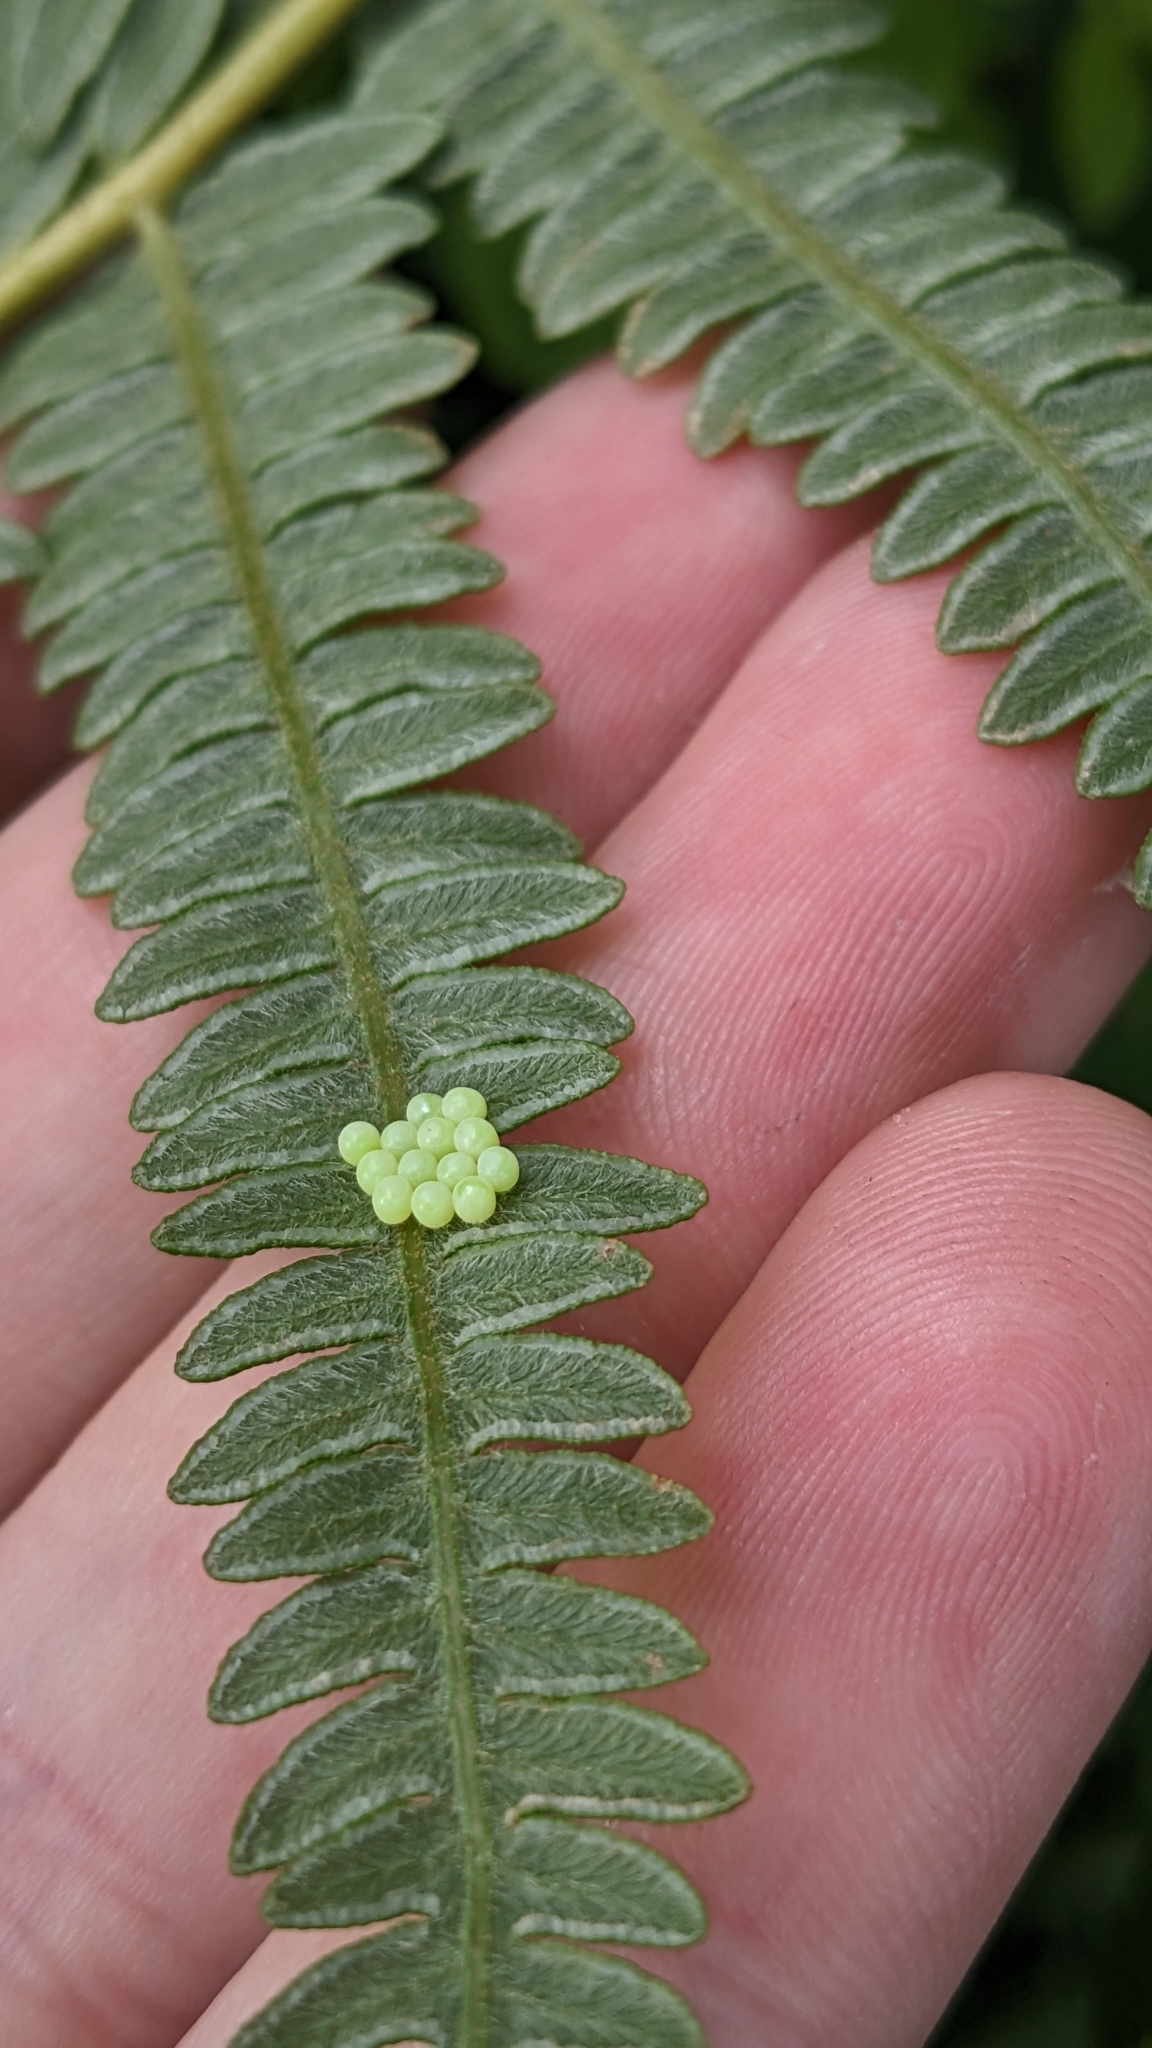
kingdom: Animalia
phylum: Arthropoda
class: Insecta
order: Hemiptera
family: Pentatomidae
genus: Palomena
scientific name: Palomena prasina
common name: Green shieldbug
